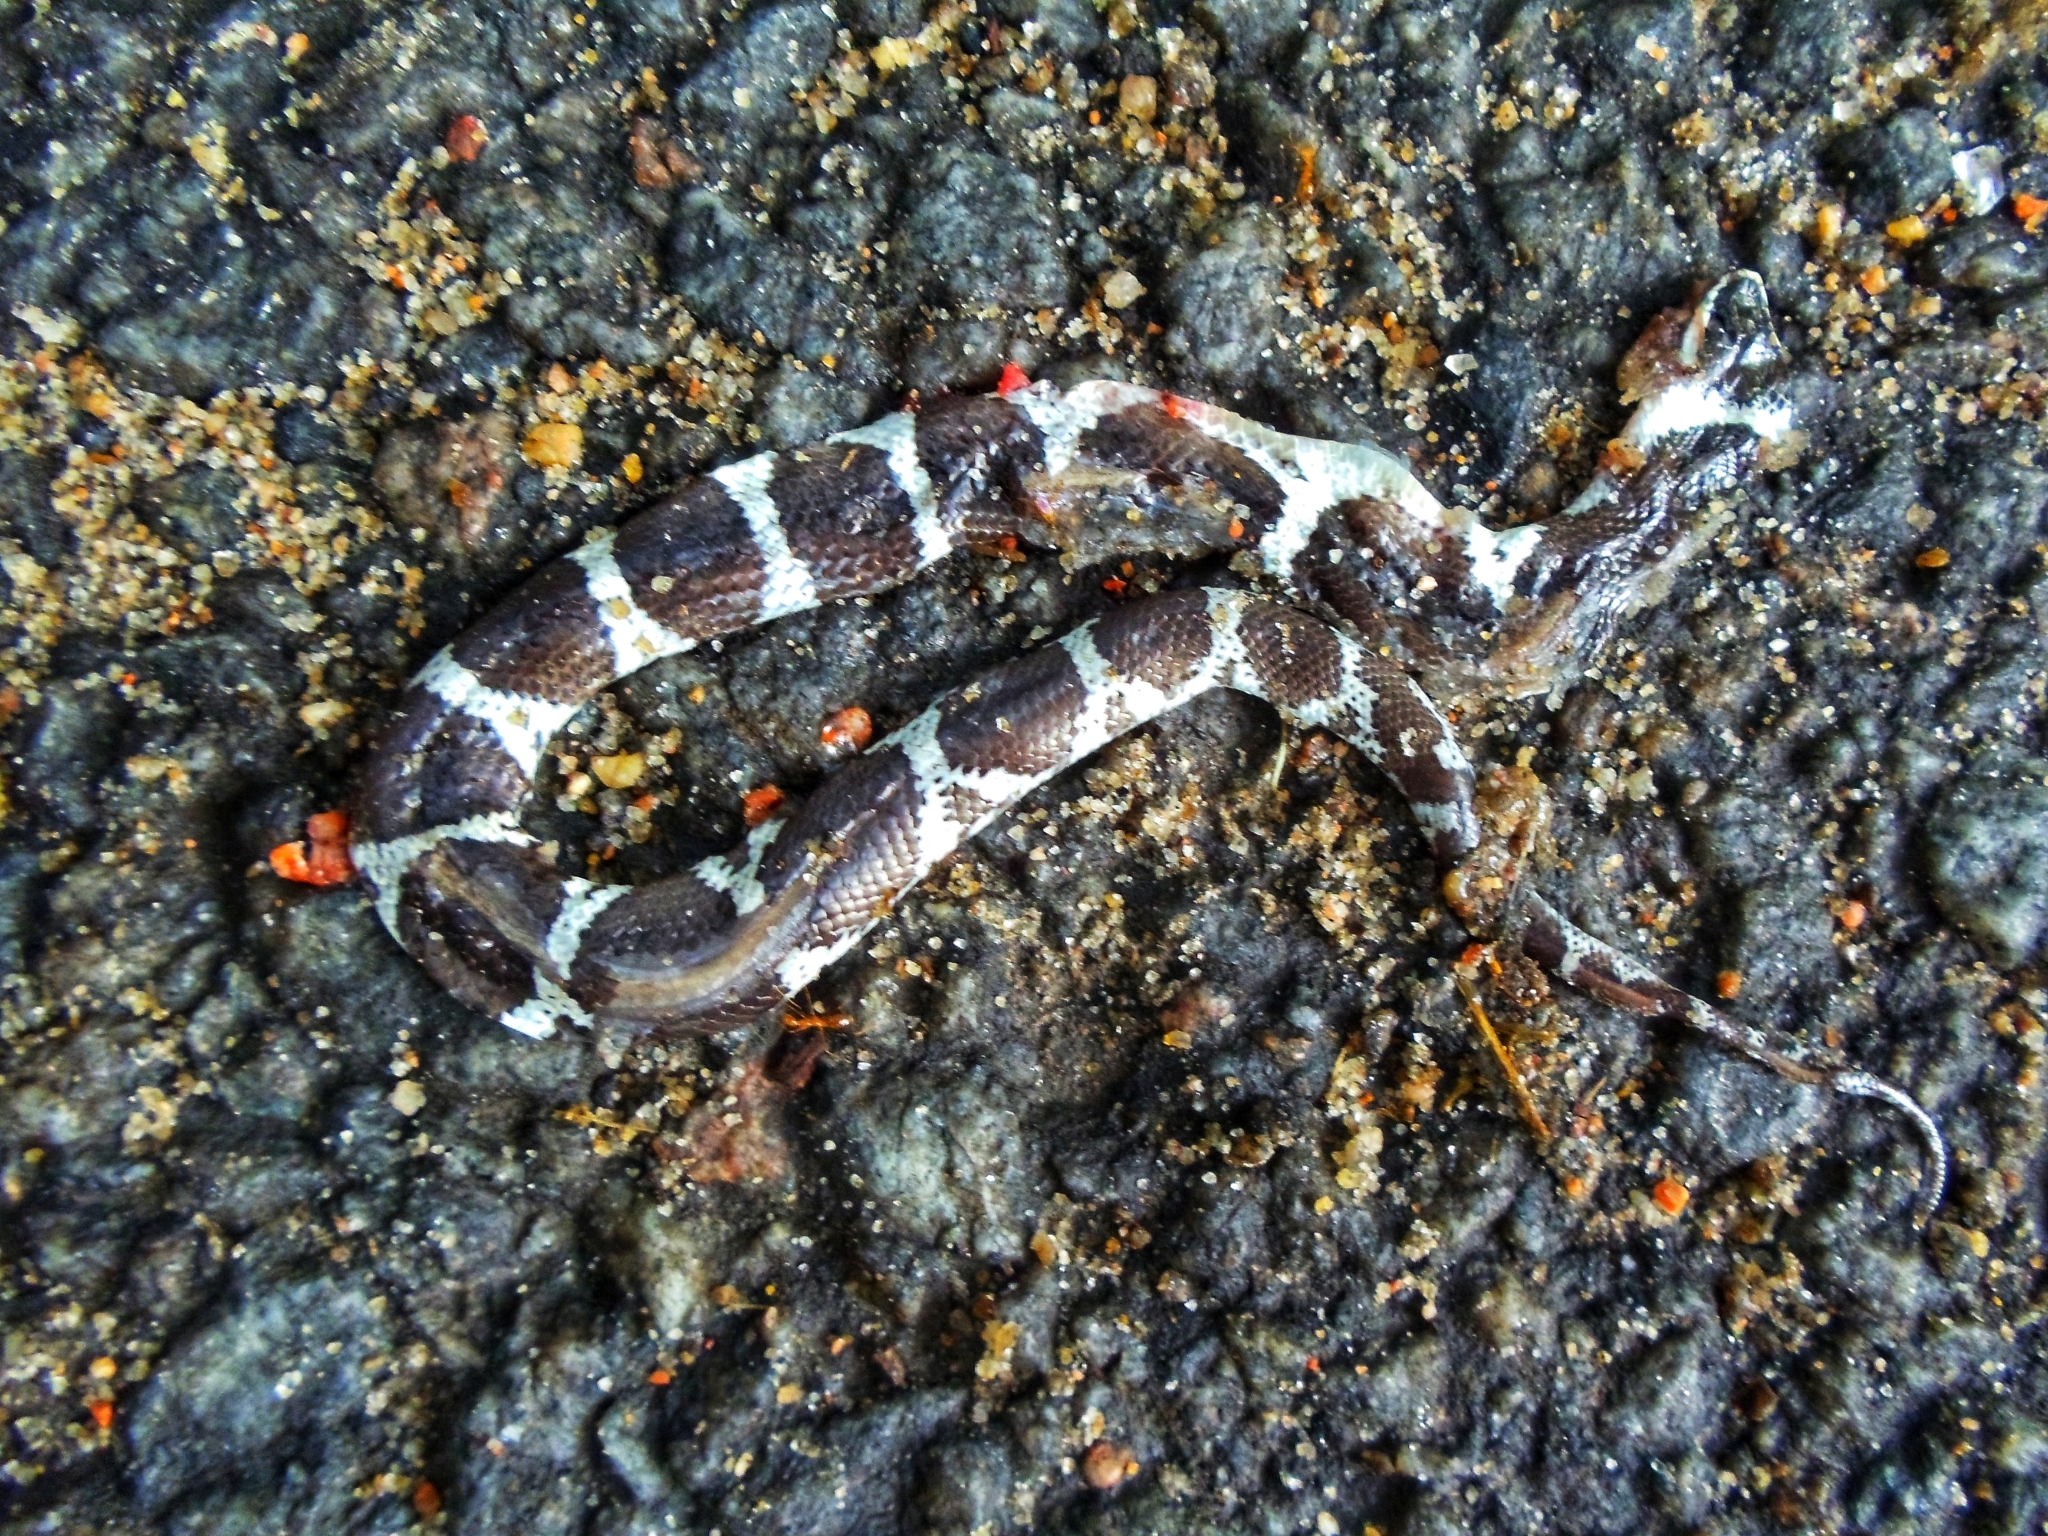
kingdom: Animalia
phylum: Chordata
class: Squamata
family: Colubridae
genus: Lycodon
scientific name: Lycodon aulicus
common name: Common wolf snake
